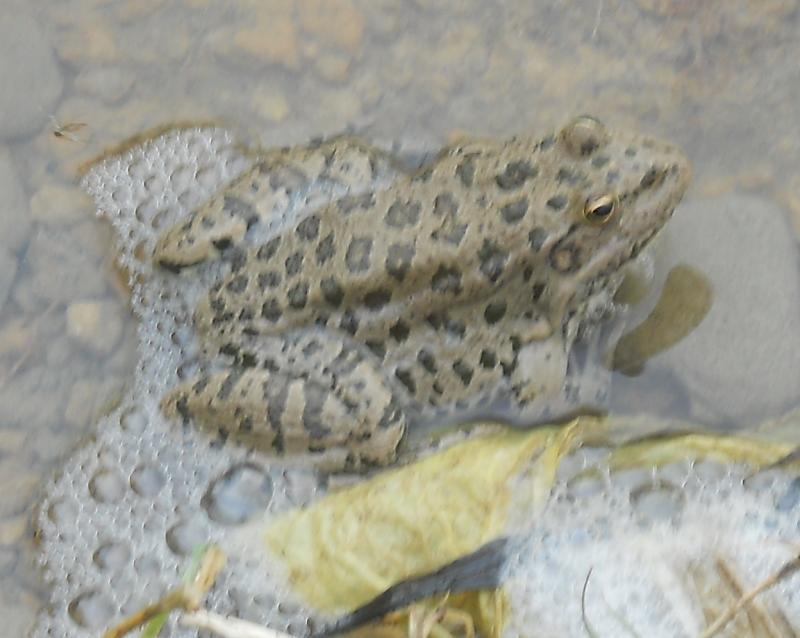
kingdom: Animalia
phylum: Chordata
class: Amphibia
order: Anura
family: Ranidae
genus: Pelophylax
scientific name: Pelophylax ridibundus
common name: Marsh frog
